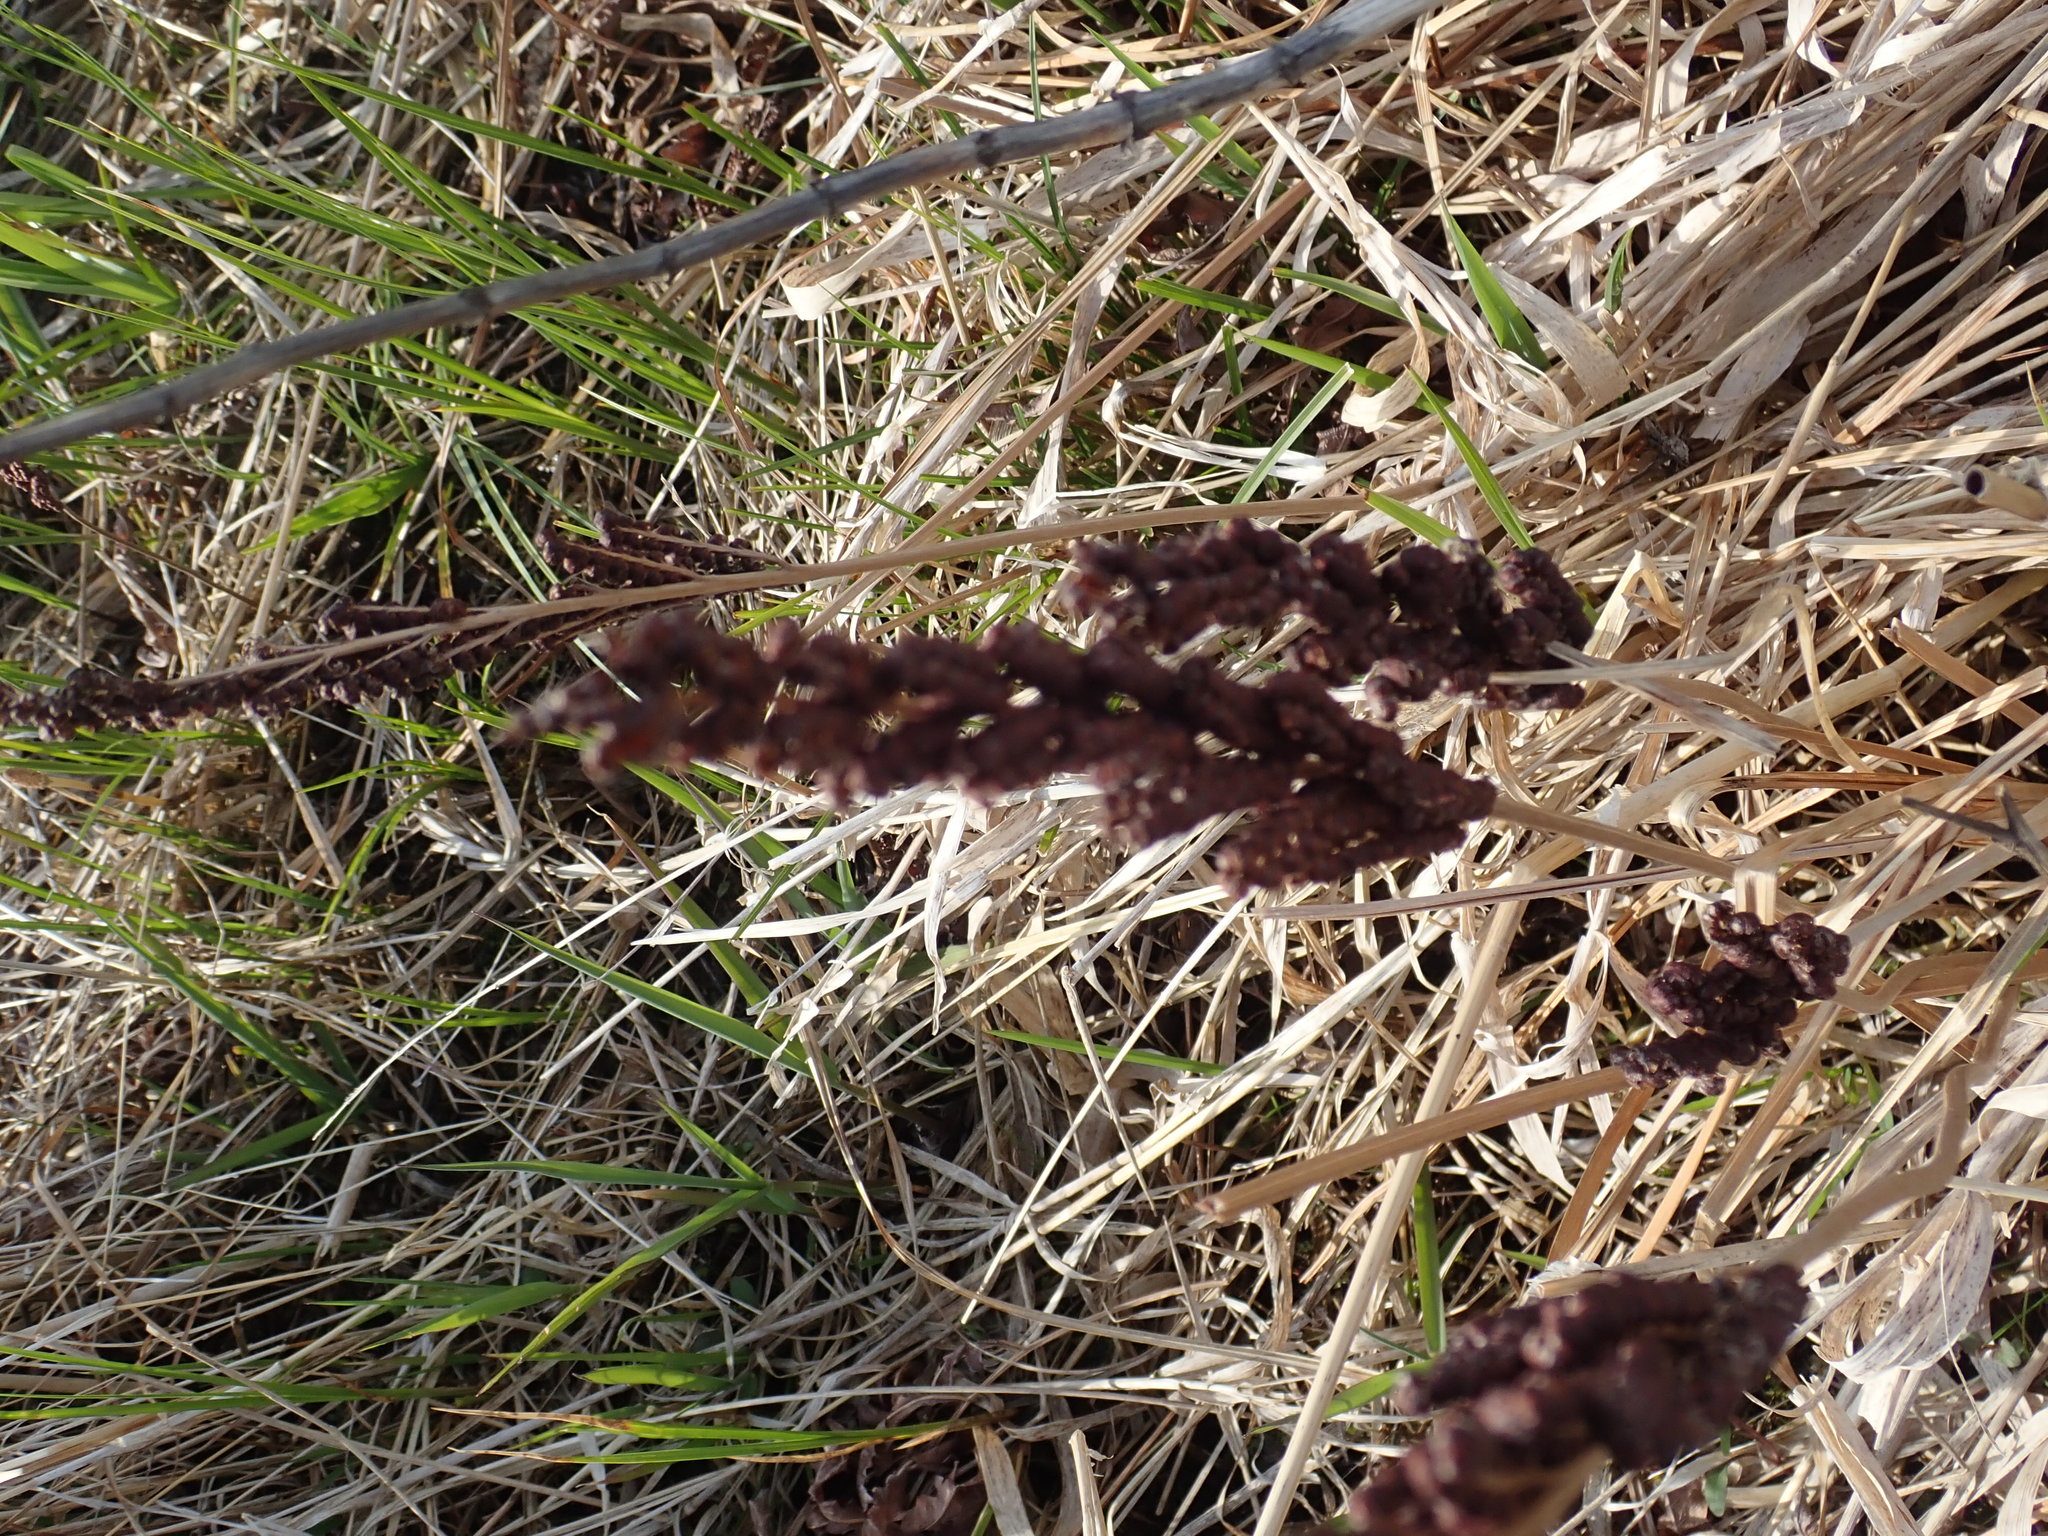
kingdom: Plantae
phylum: Tracheophyta
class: Polypodiopsida
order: Polypodiales
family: Onocleaceae
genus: Onoclea
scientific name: Onoclea sensibilis
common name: Sensitive fern
